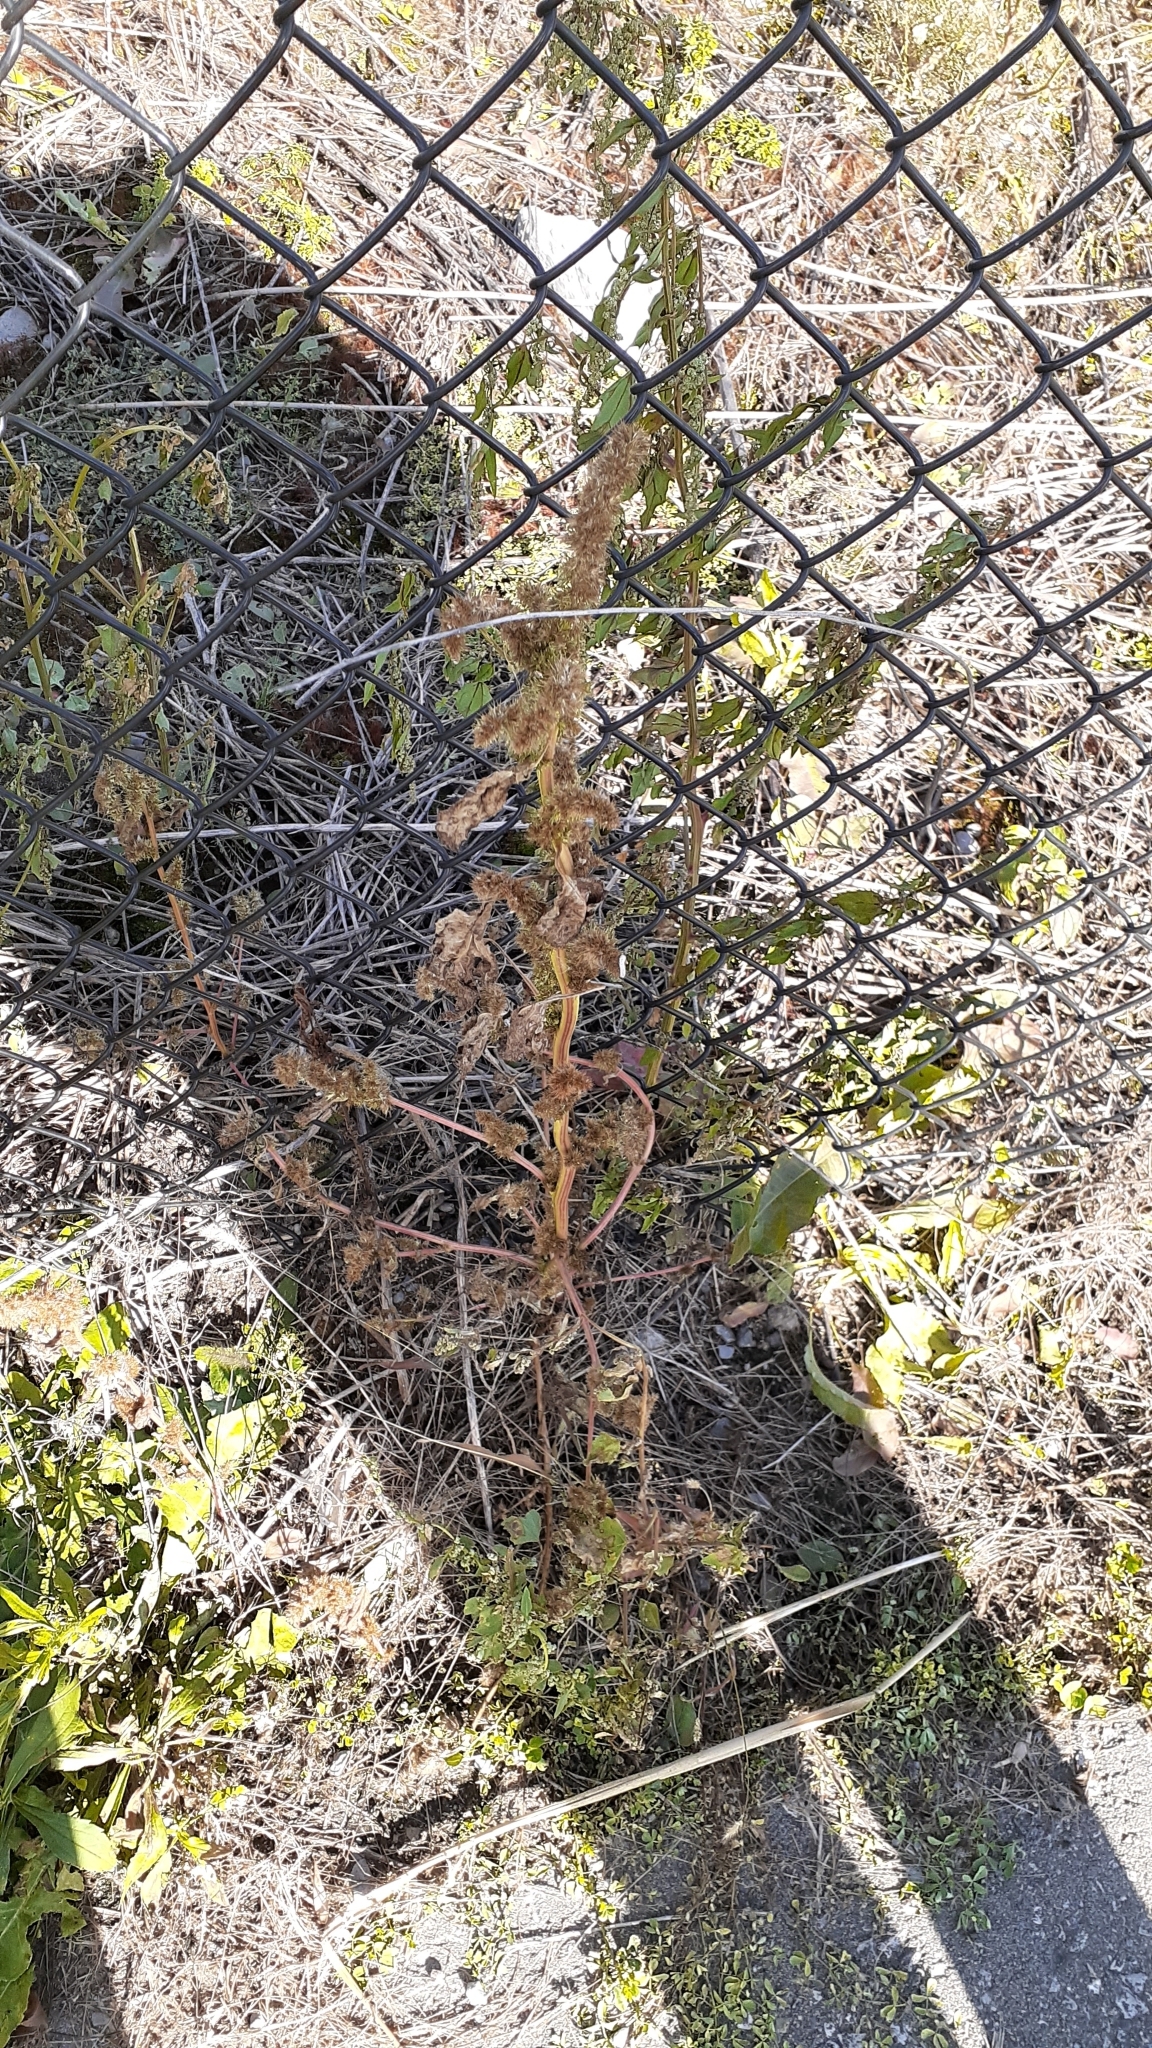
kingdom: Plantae
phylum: Tracheophyta
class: Magnoliopsida
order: Caryophyllales
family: Amaranthaceae
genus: Amaranthus
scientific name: Amaranthus retroflexus
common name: Redroot amaranth
